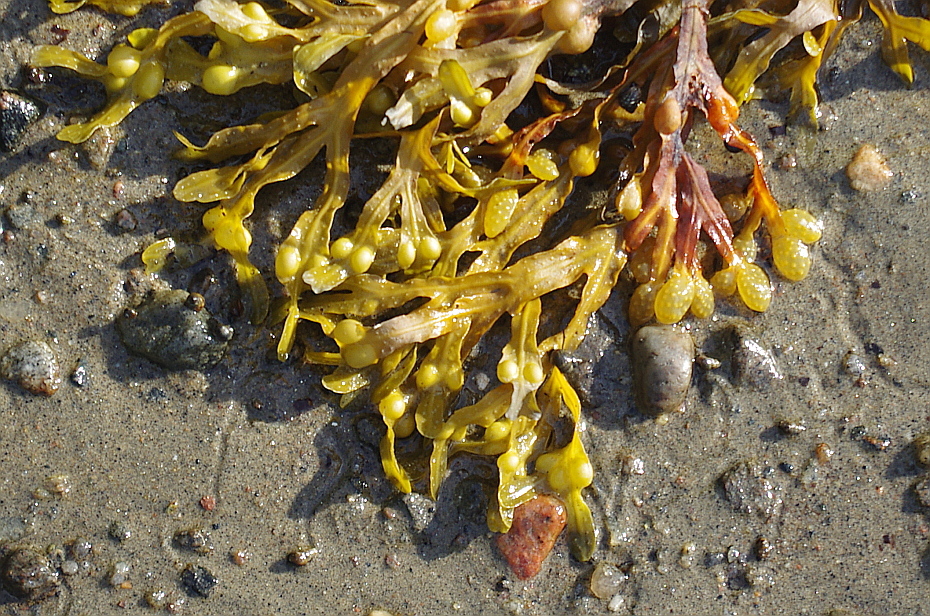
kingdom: Chromista
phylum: Ochrophyta
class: Phaeophyceae
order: Fucales
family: Fucaceae
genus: Fucus
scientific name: Fucus vesiculosus
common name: Bladder wrack
